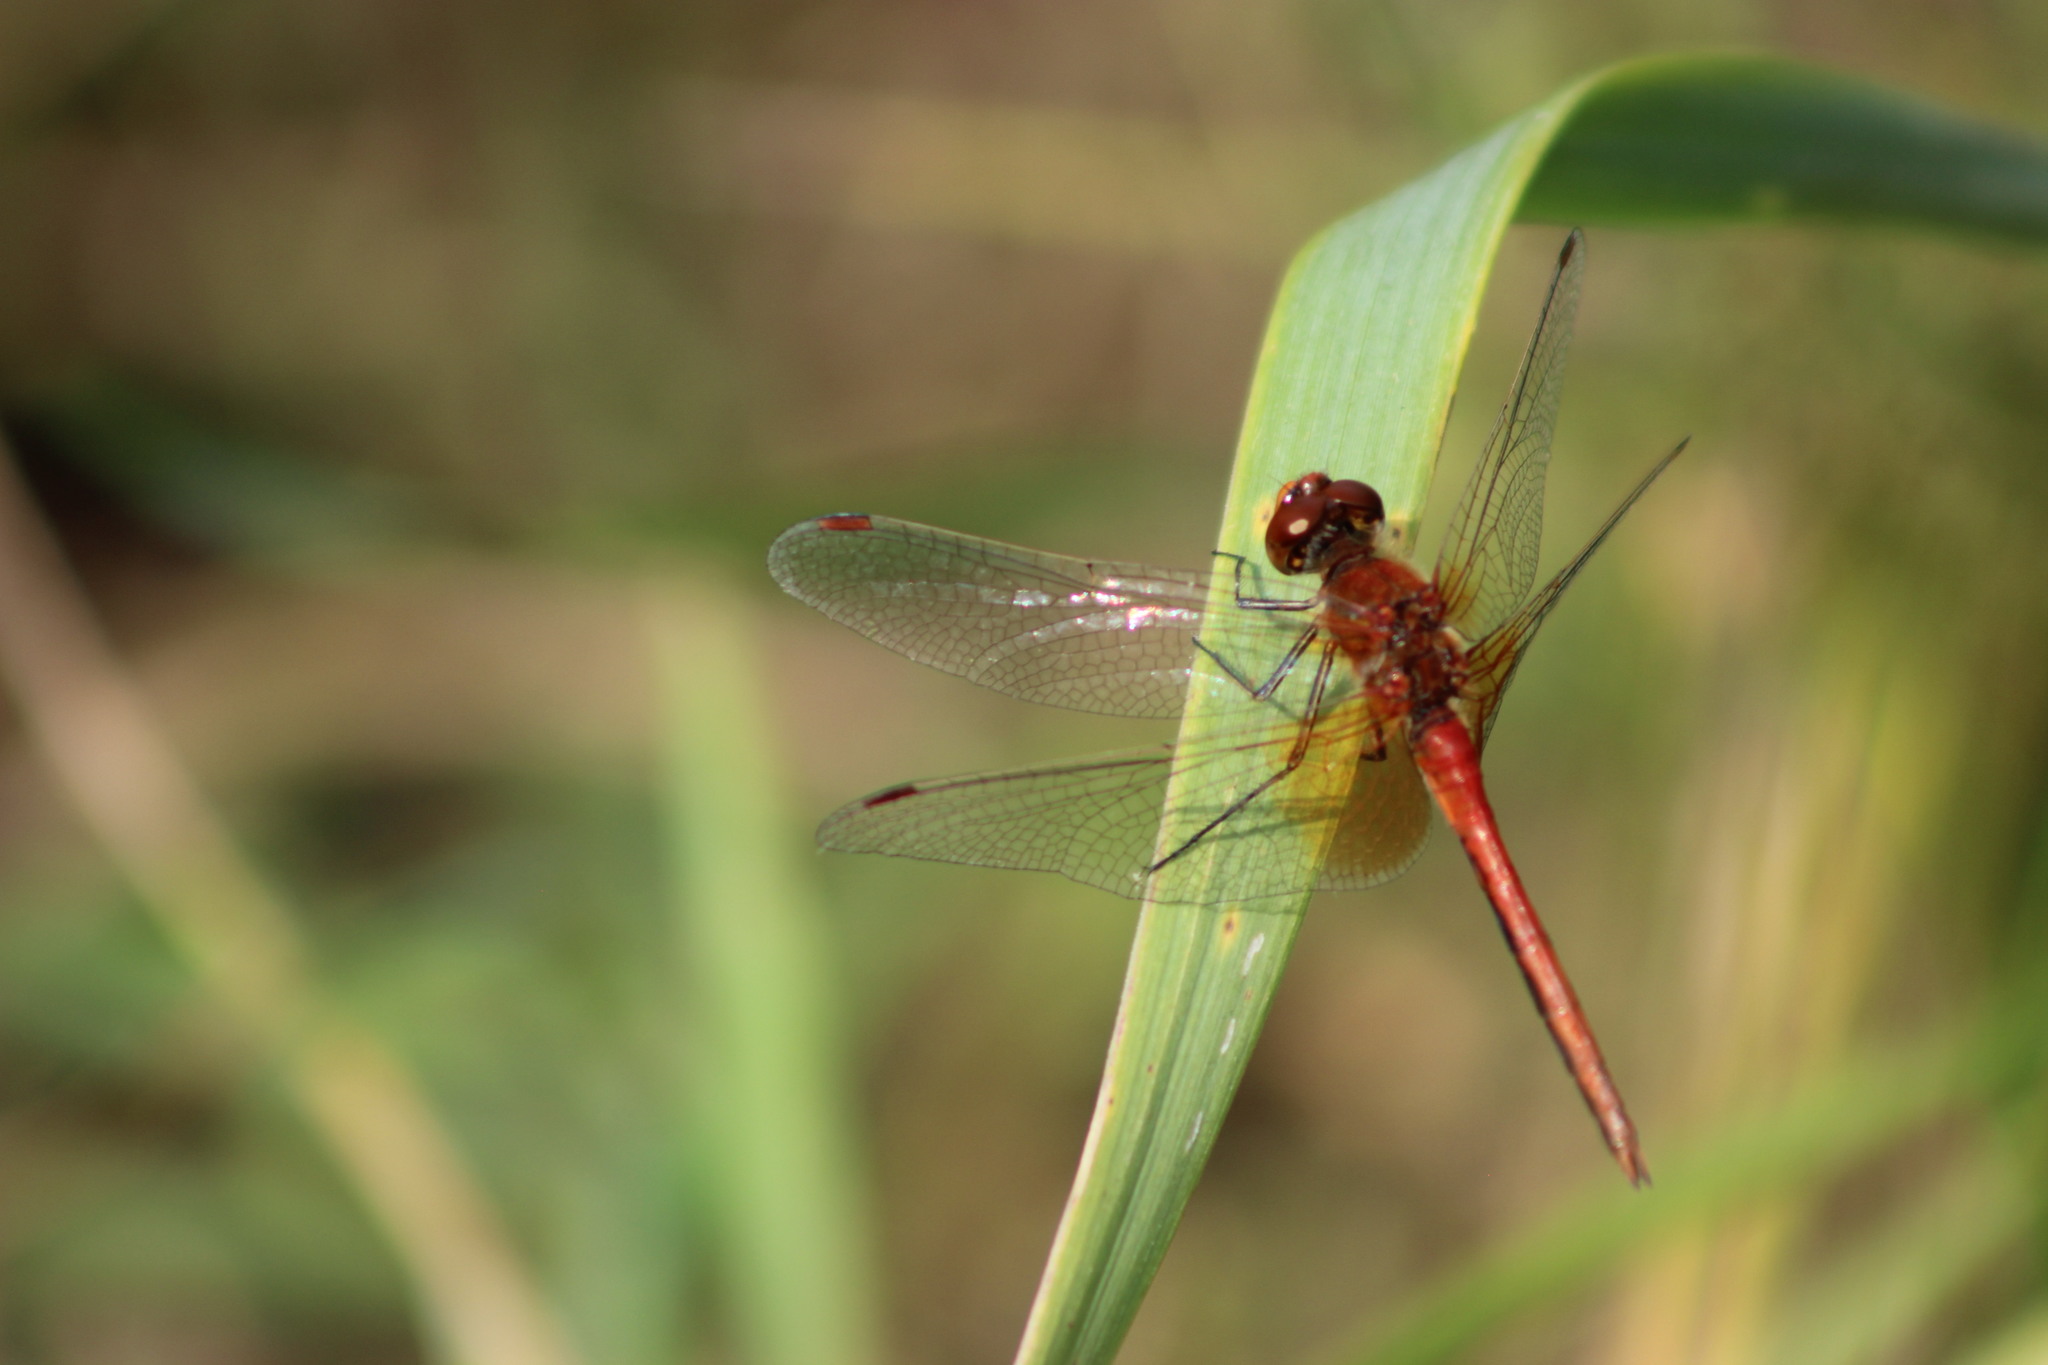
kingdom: Animalia
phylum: Arthropoda
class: Insecta
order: Odonata
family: Libellulidae
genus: Sympetrum
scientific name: Sympetrum flaveolum
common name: Yellow-winged darter
